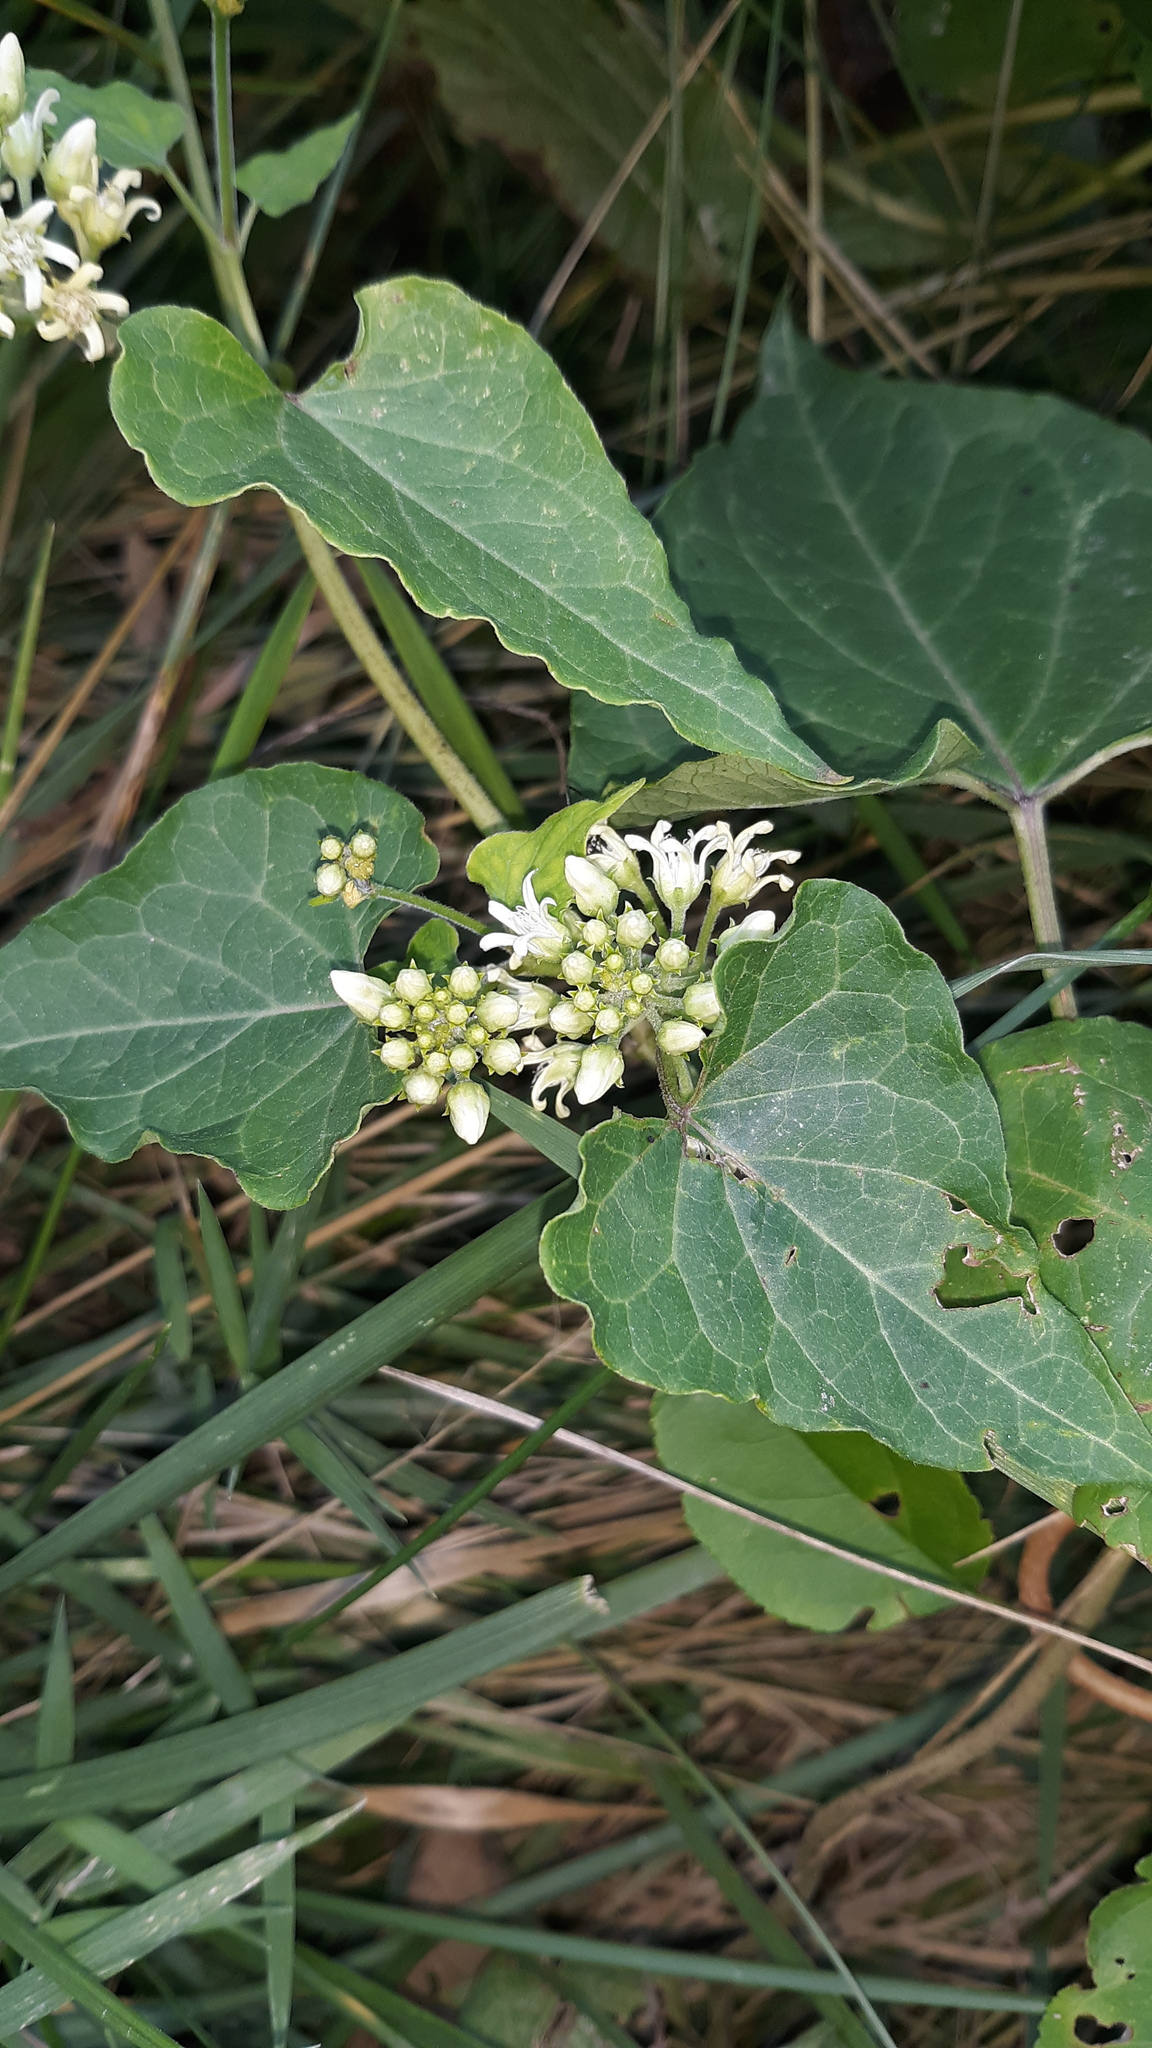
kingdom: Plantae
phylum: Tracheophyta
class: Magnoliopsida
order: Gentianales
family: Apocynaceae
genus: Cynanchum
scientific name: Cynanchum laeve
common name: Sandvine
